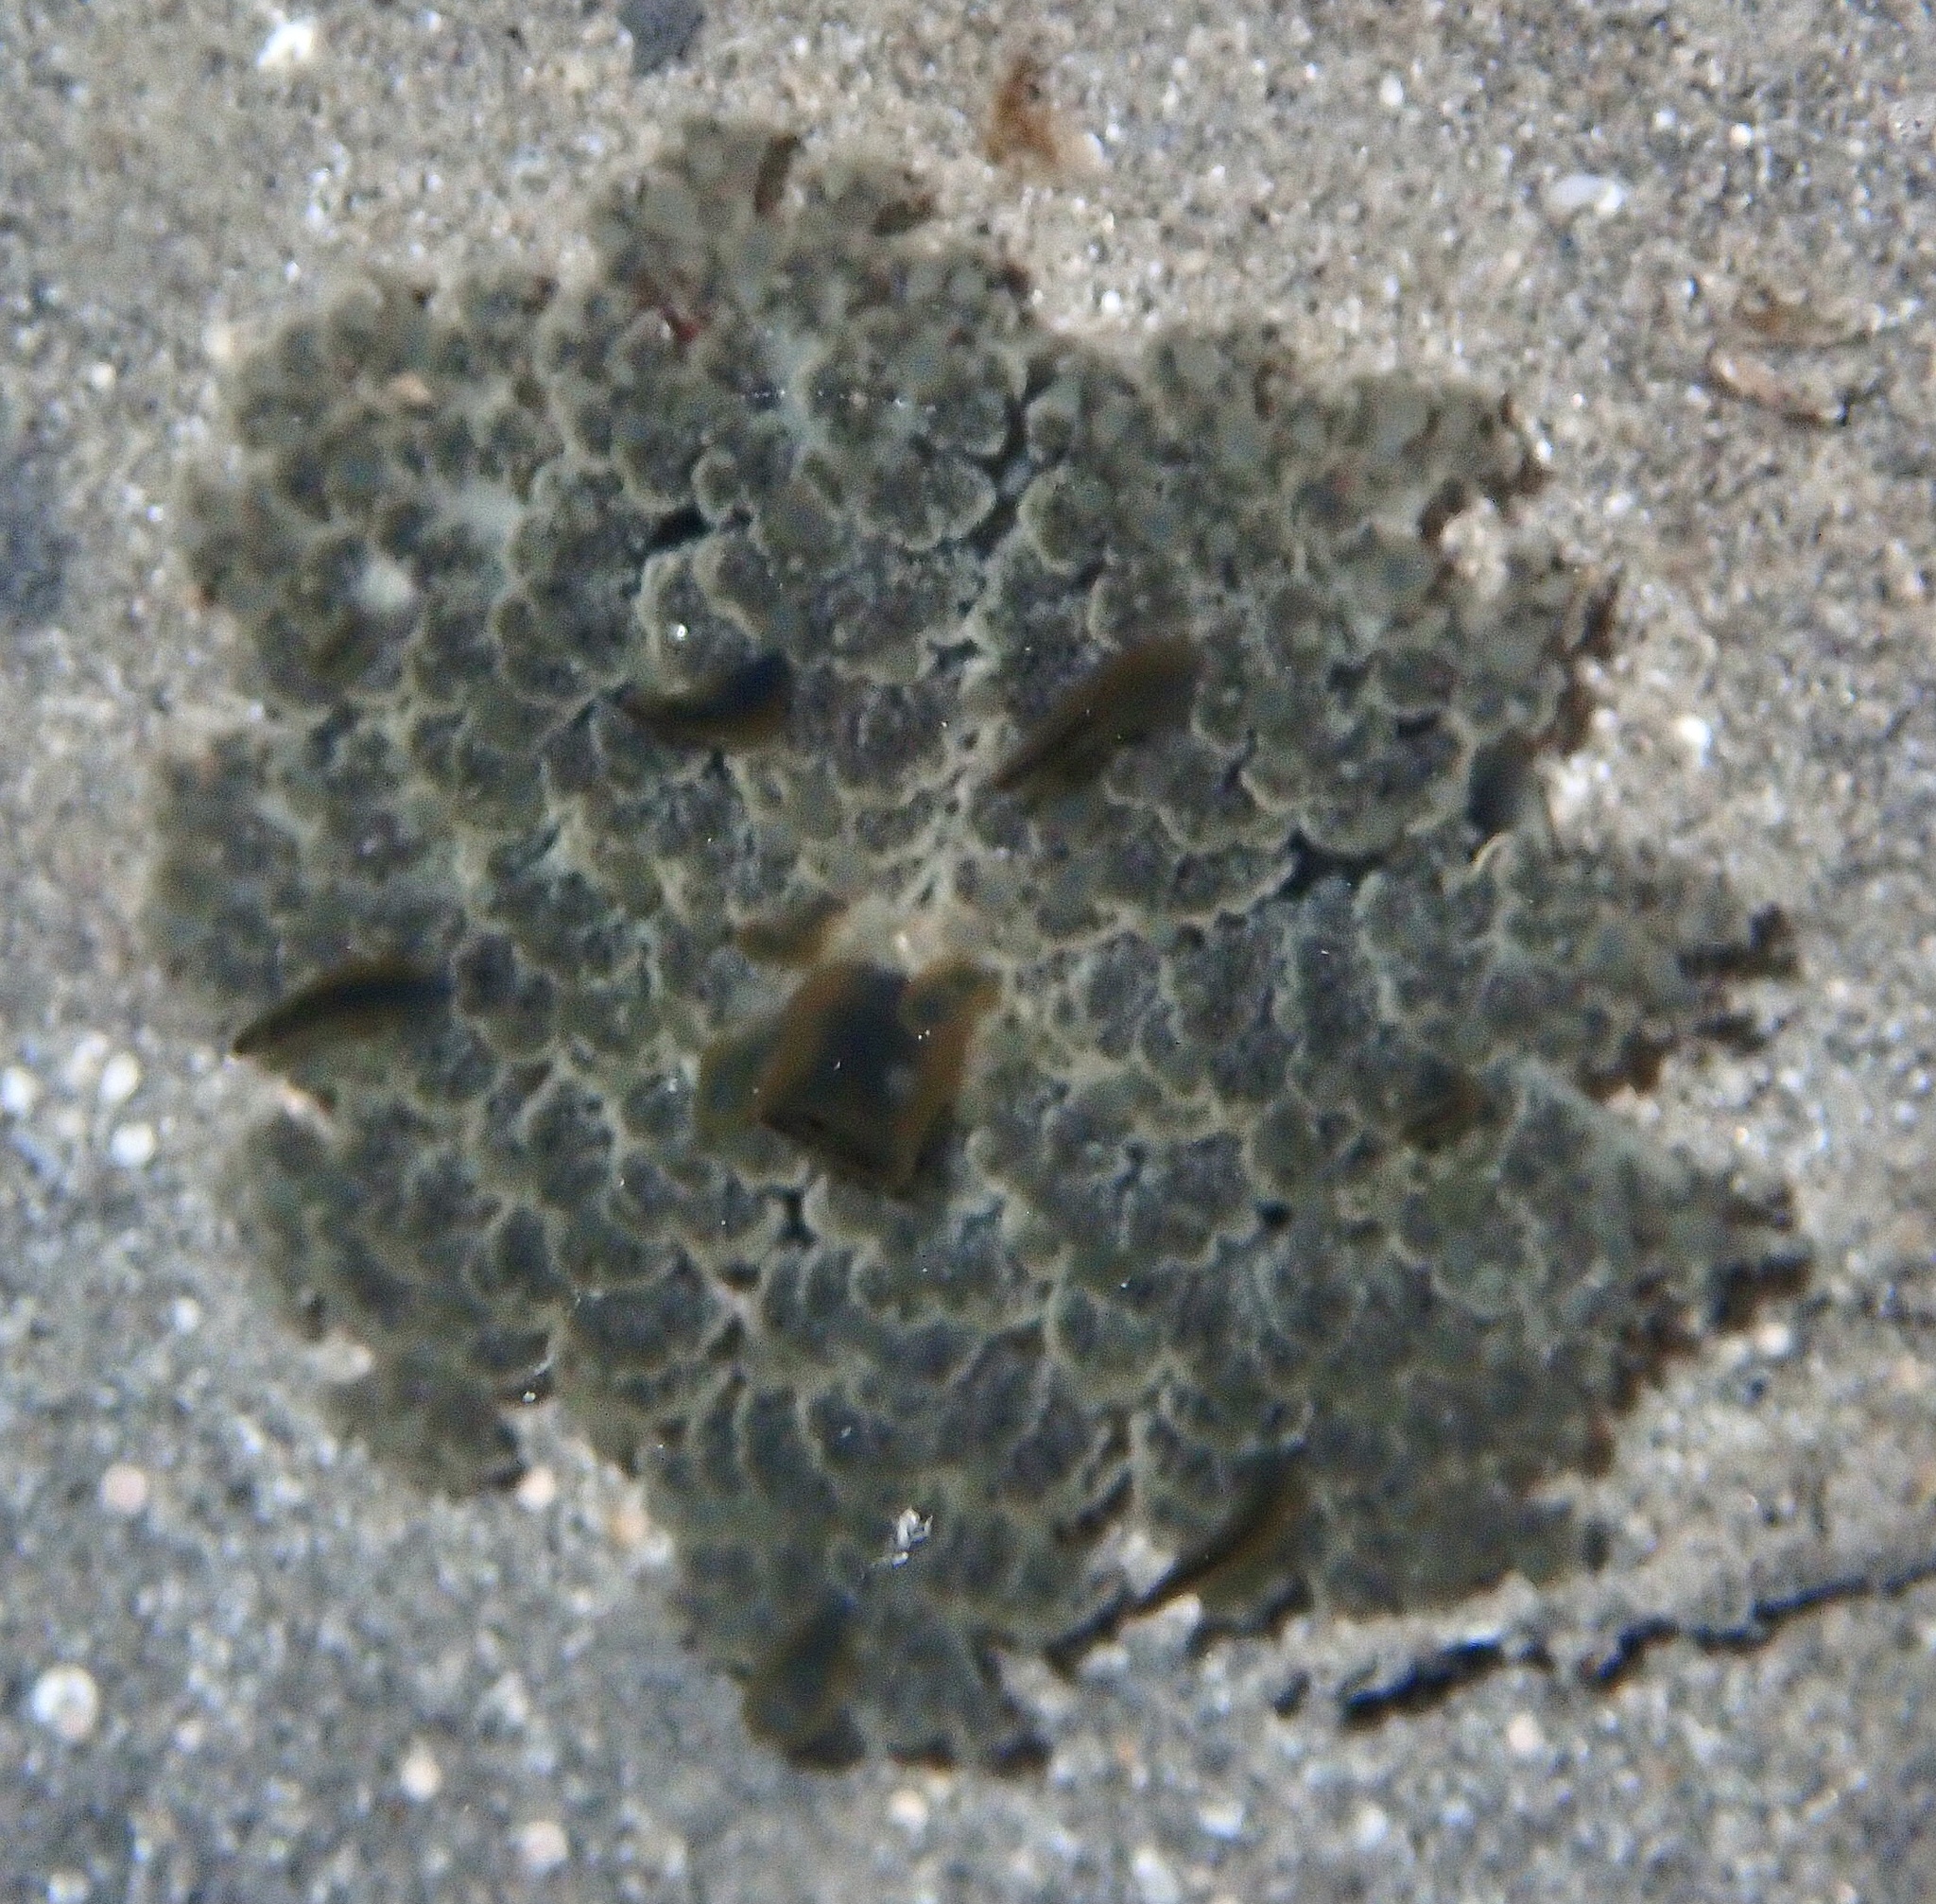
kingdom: Animalia
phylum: Cnidaria
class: Scyphozoa
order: Rhizostomeae
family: Cassiopeidae
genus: Cassiopea
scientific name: Cassiopea andromeda
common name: Upside-down jellyfish
